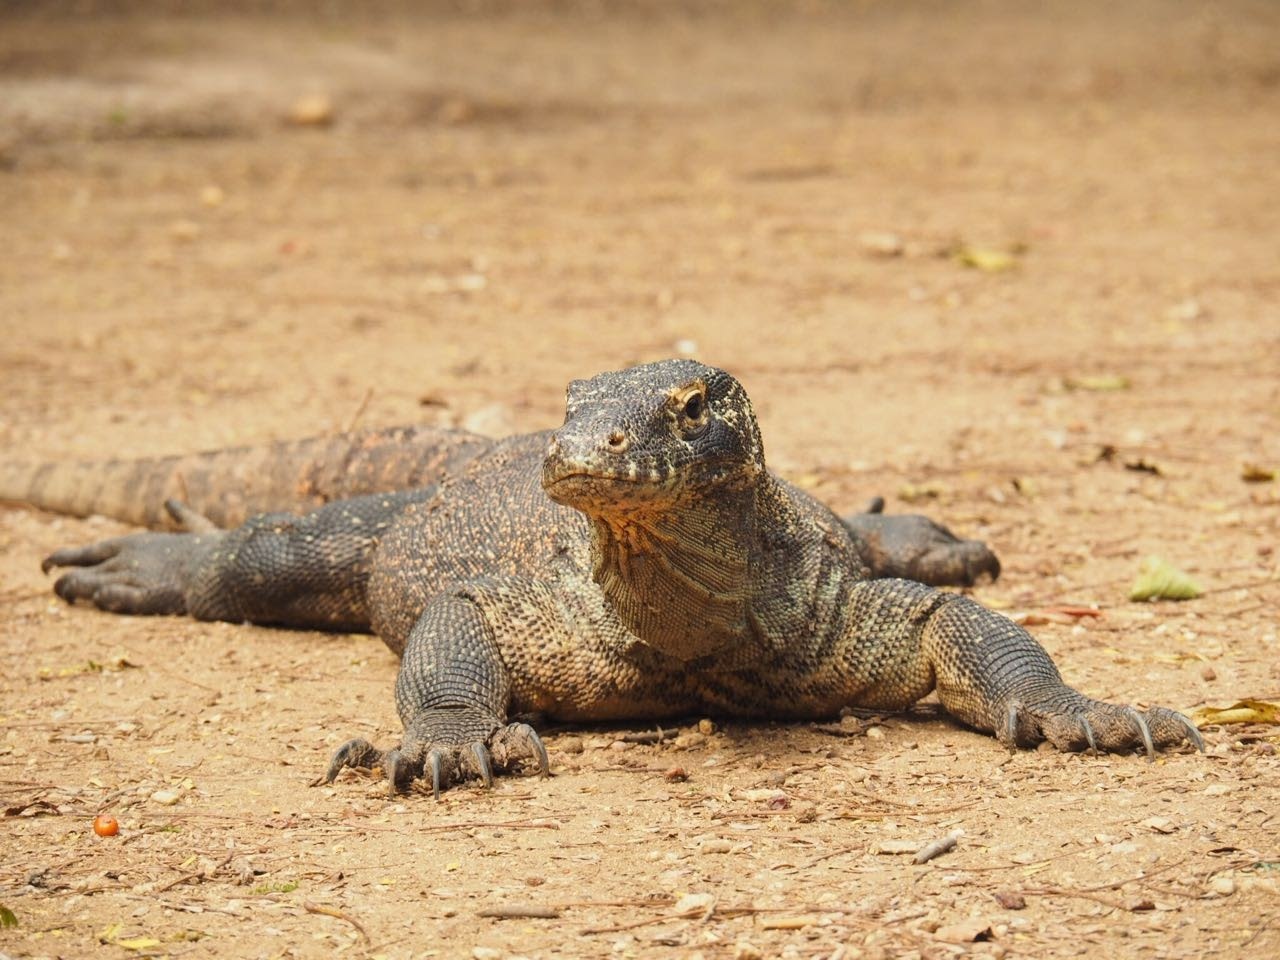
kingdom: Animalia
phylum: Chordata
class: Squamata
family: Varanidae
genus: Varanus
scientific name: Varanus komodoensis
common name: Komodo dragon
